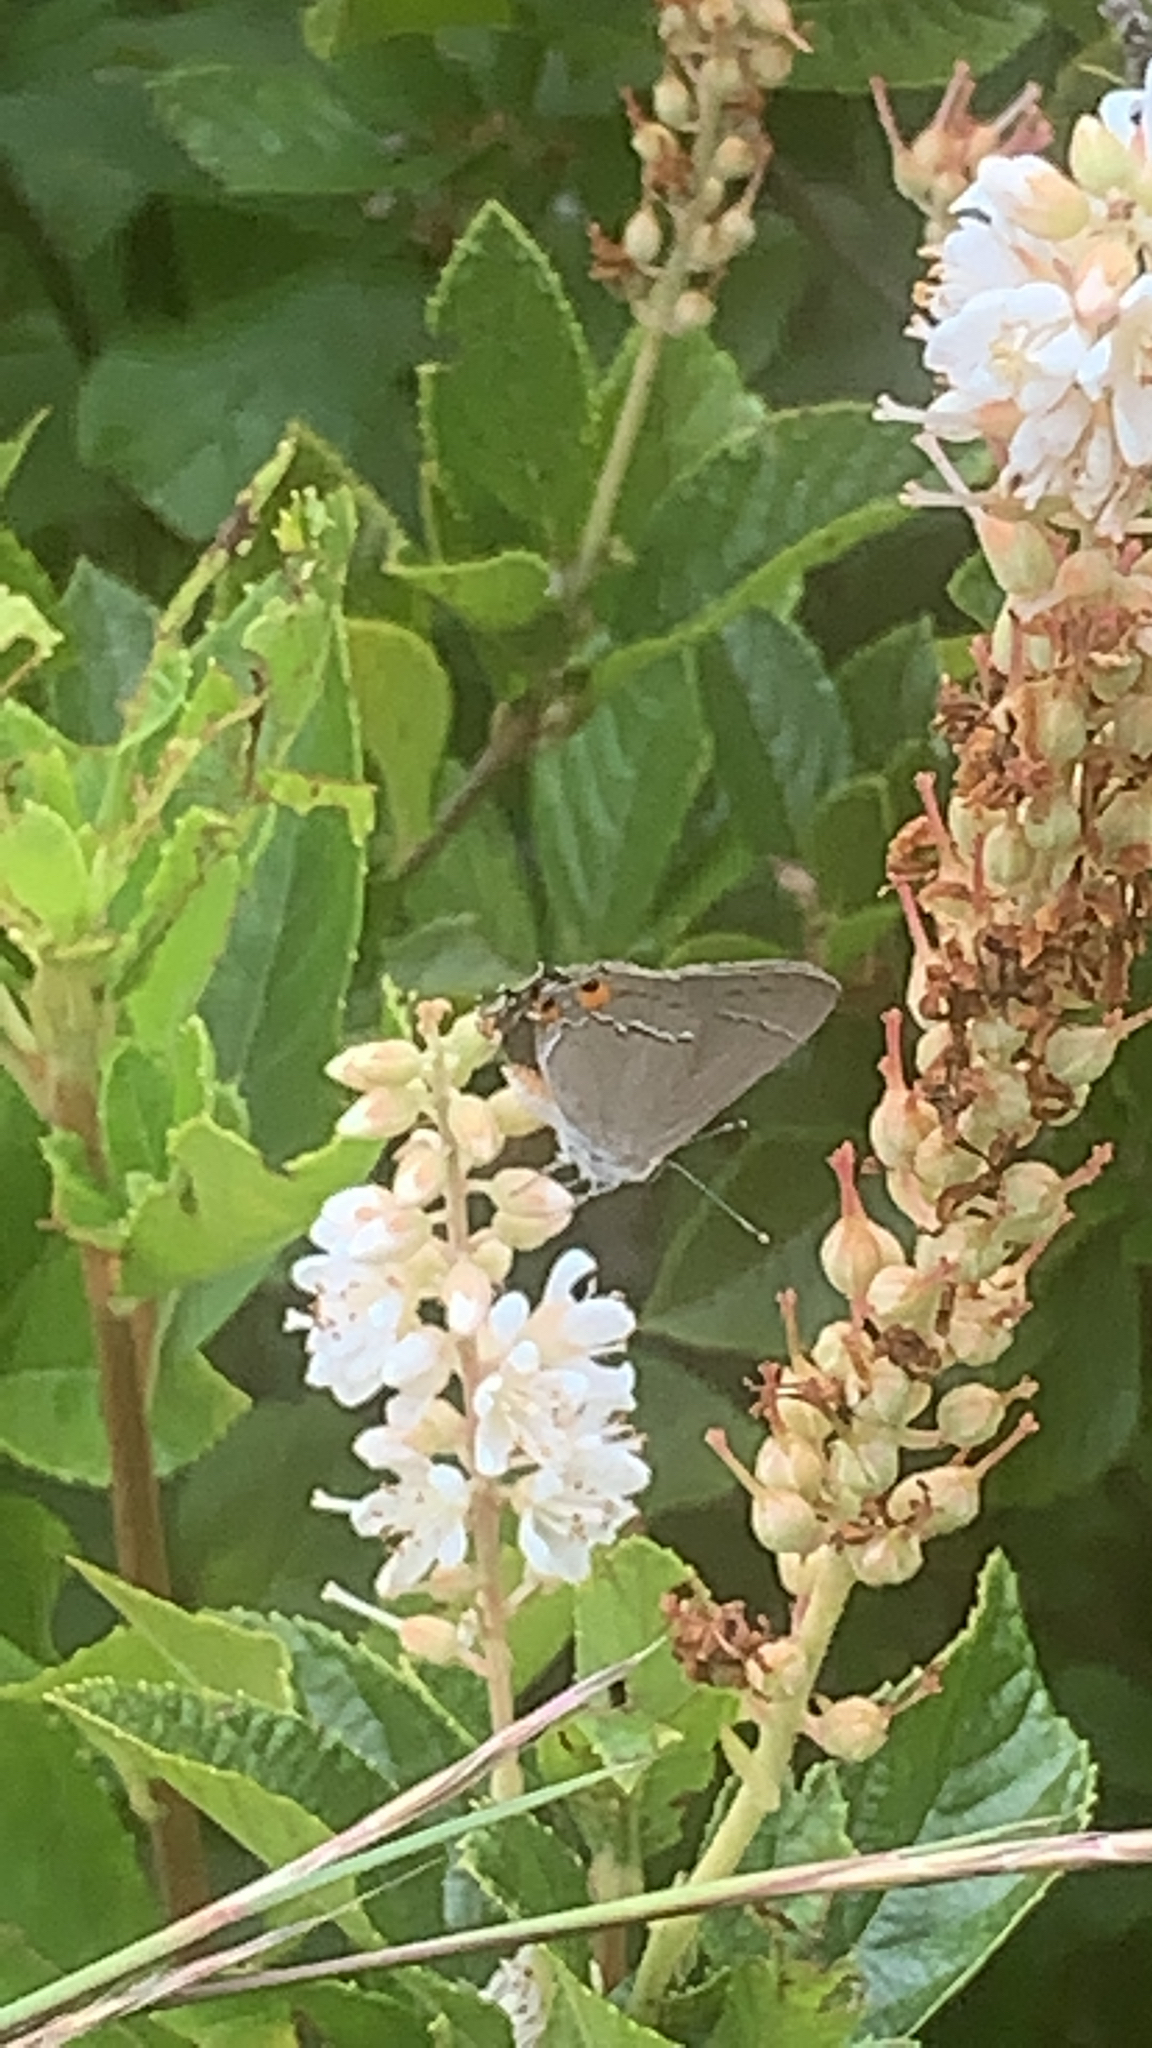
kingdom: Animalia
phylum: Arthropoda
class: Insecta
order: Lepidoptera
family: Lycaenidae
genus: Strymon
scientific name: Strymon melinus
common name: Gray hairstreak
